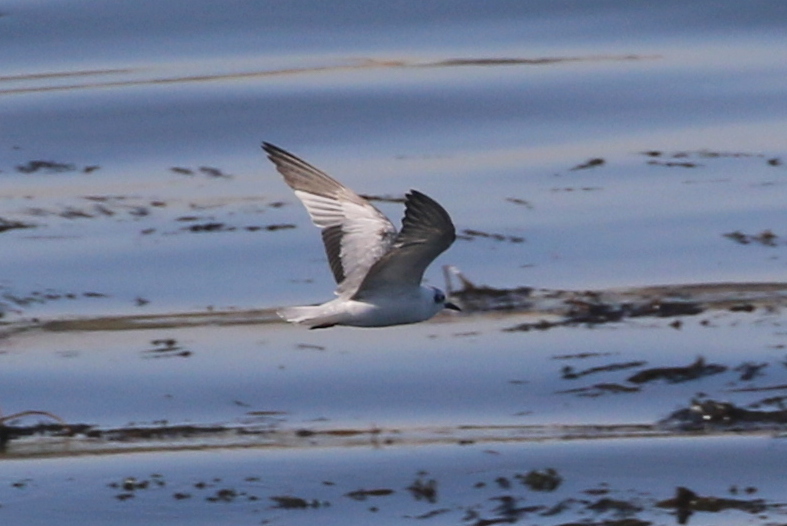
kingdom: Animalia
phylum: Chordata
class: Aves
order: Charadriiformes
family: Laridae
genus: Chlidonias
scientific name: Chlidonias leucopterus
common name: White-winged tern
